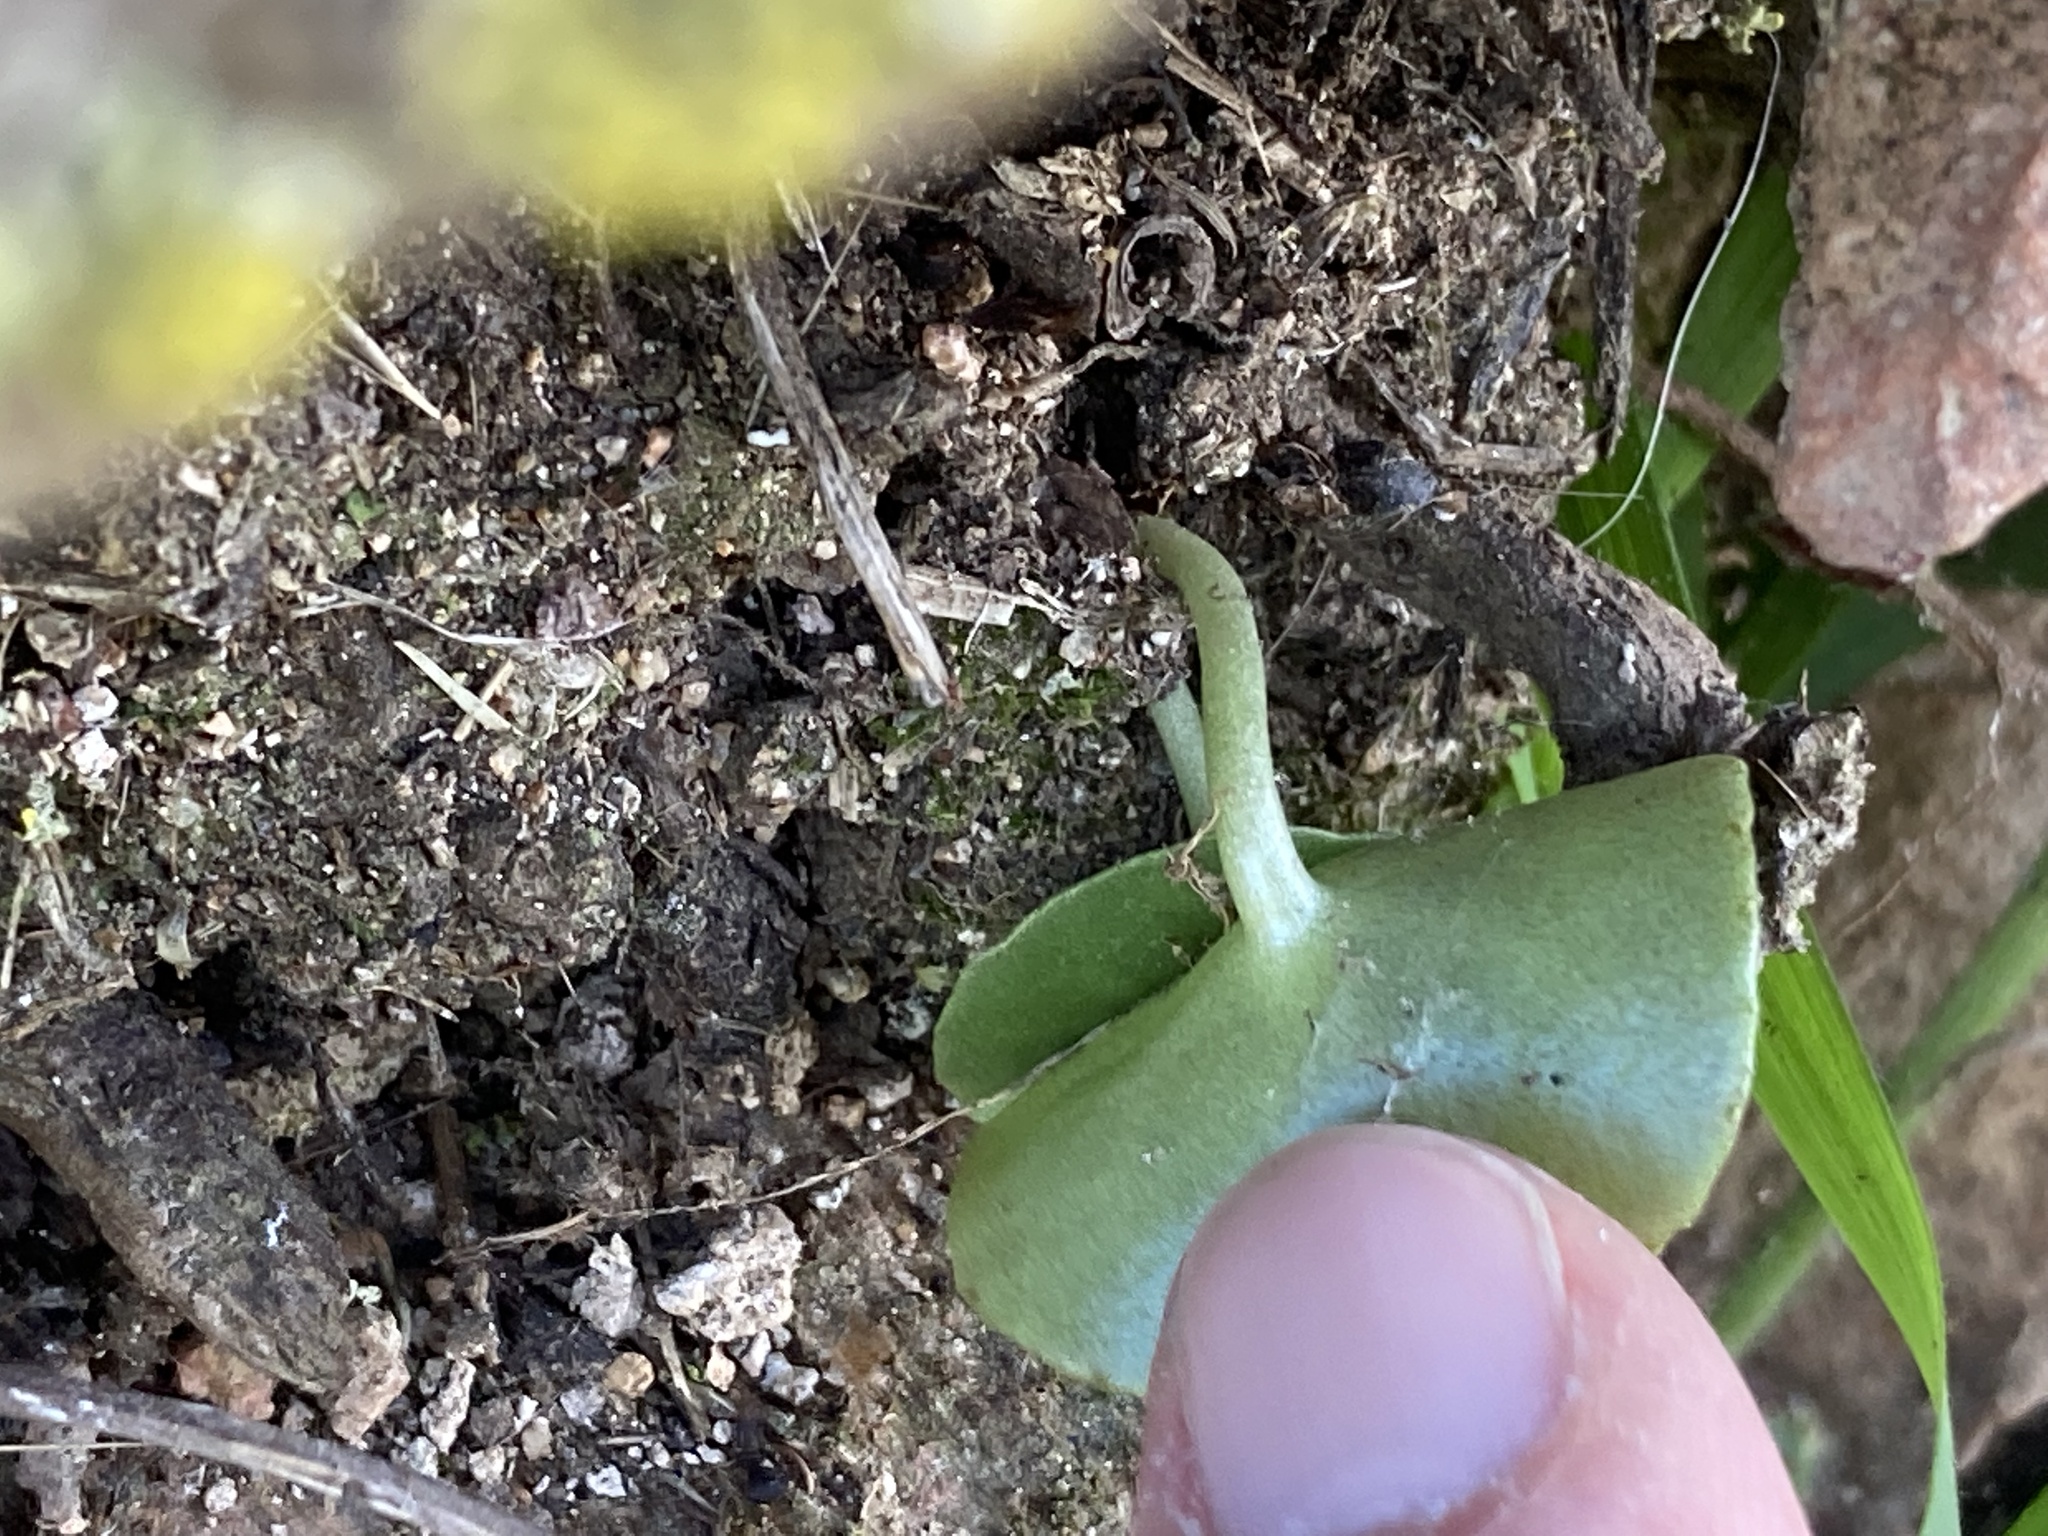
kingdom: Plantae
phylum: Tracheophyta
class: Magnoliopsida
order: Saxifragales
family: Crassulaceae
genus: Umbilicus
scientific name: Umbilicus rupestris
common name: Navelwort
